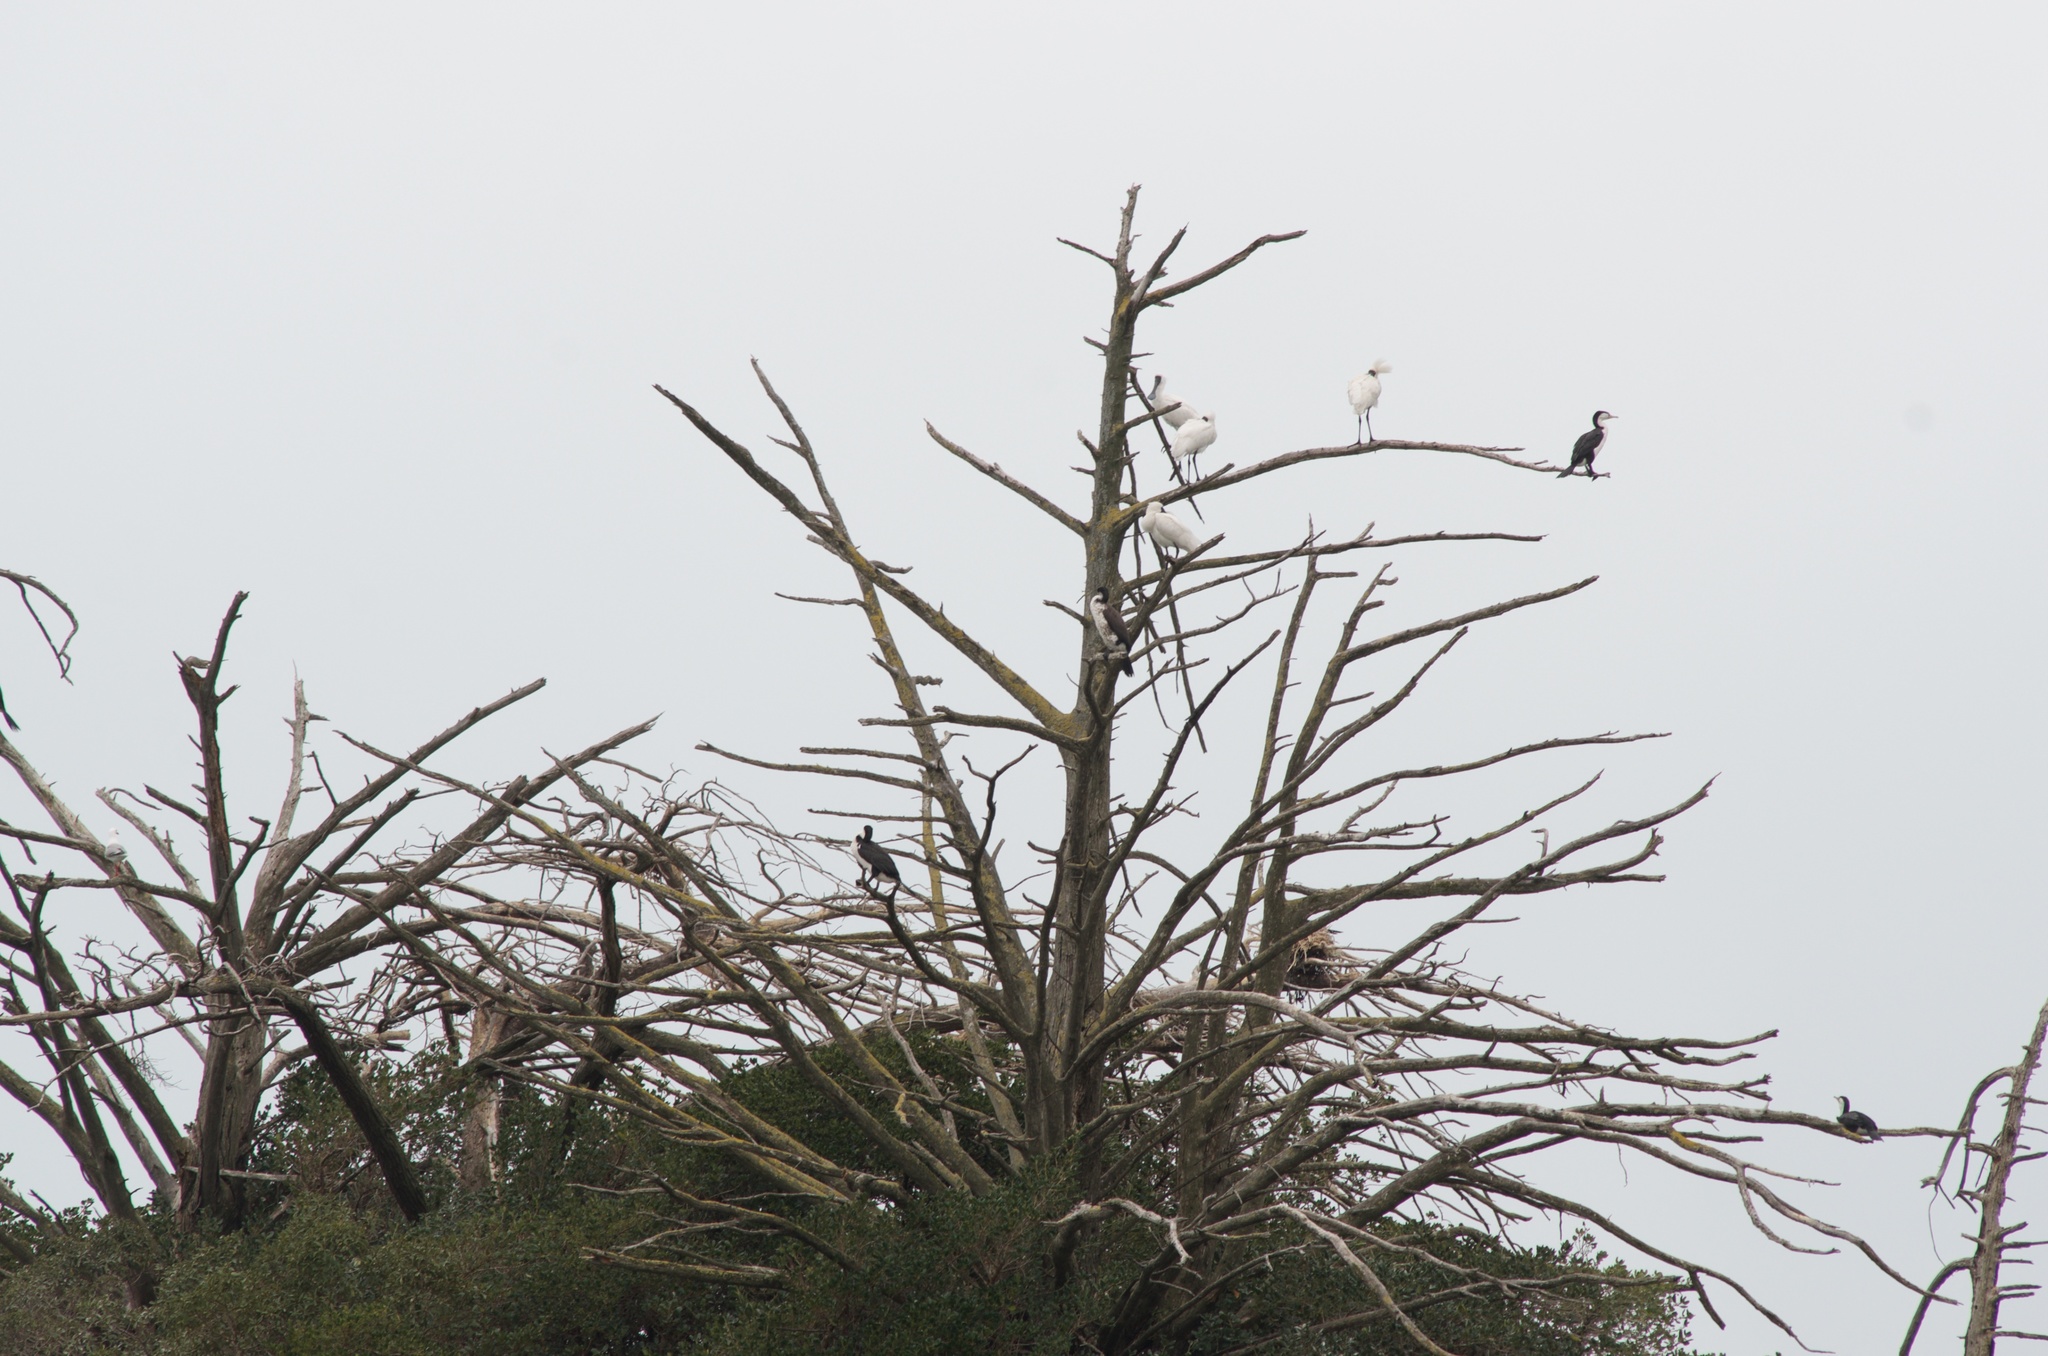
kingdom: Animalia
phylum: Chordata
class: Aves
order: Pelecaniformes
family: Threskiornithidae
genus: Platalea
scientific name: Platalea regia
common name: Royal spoonbill
